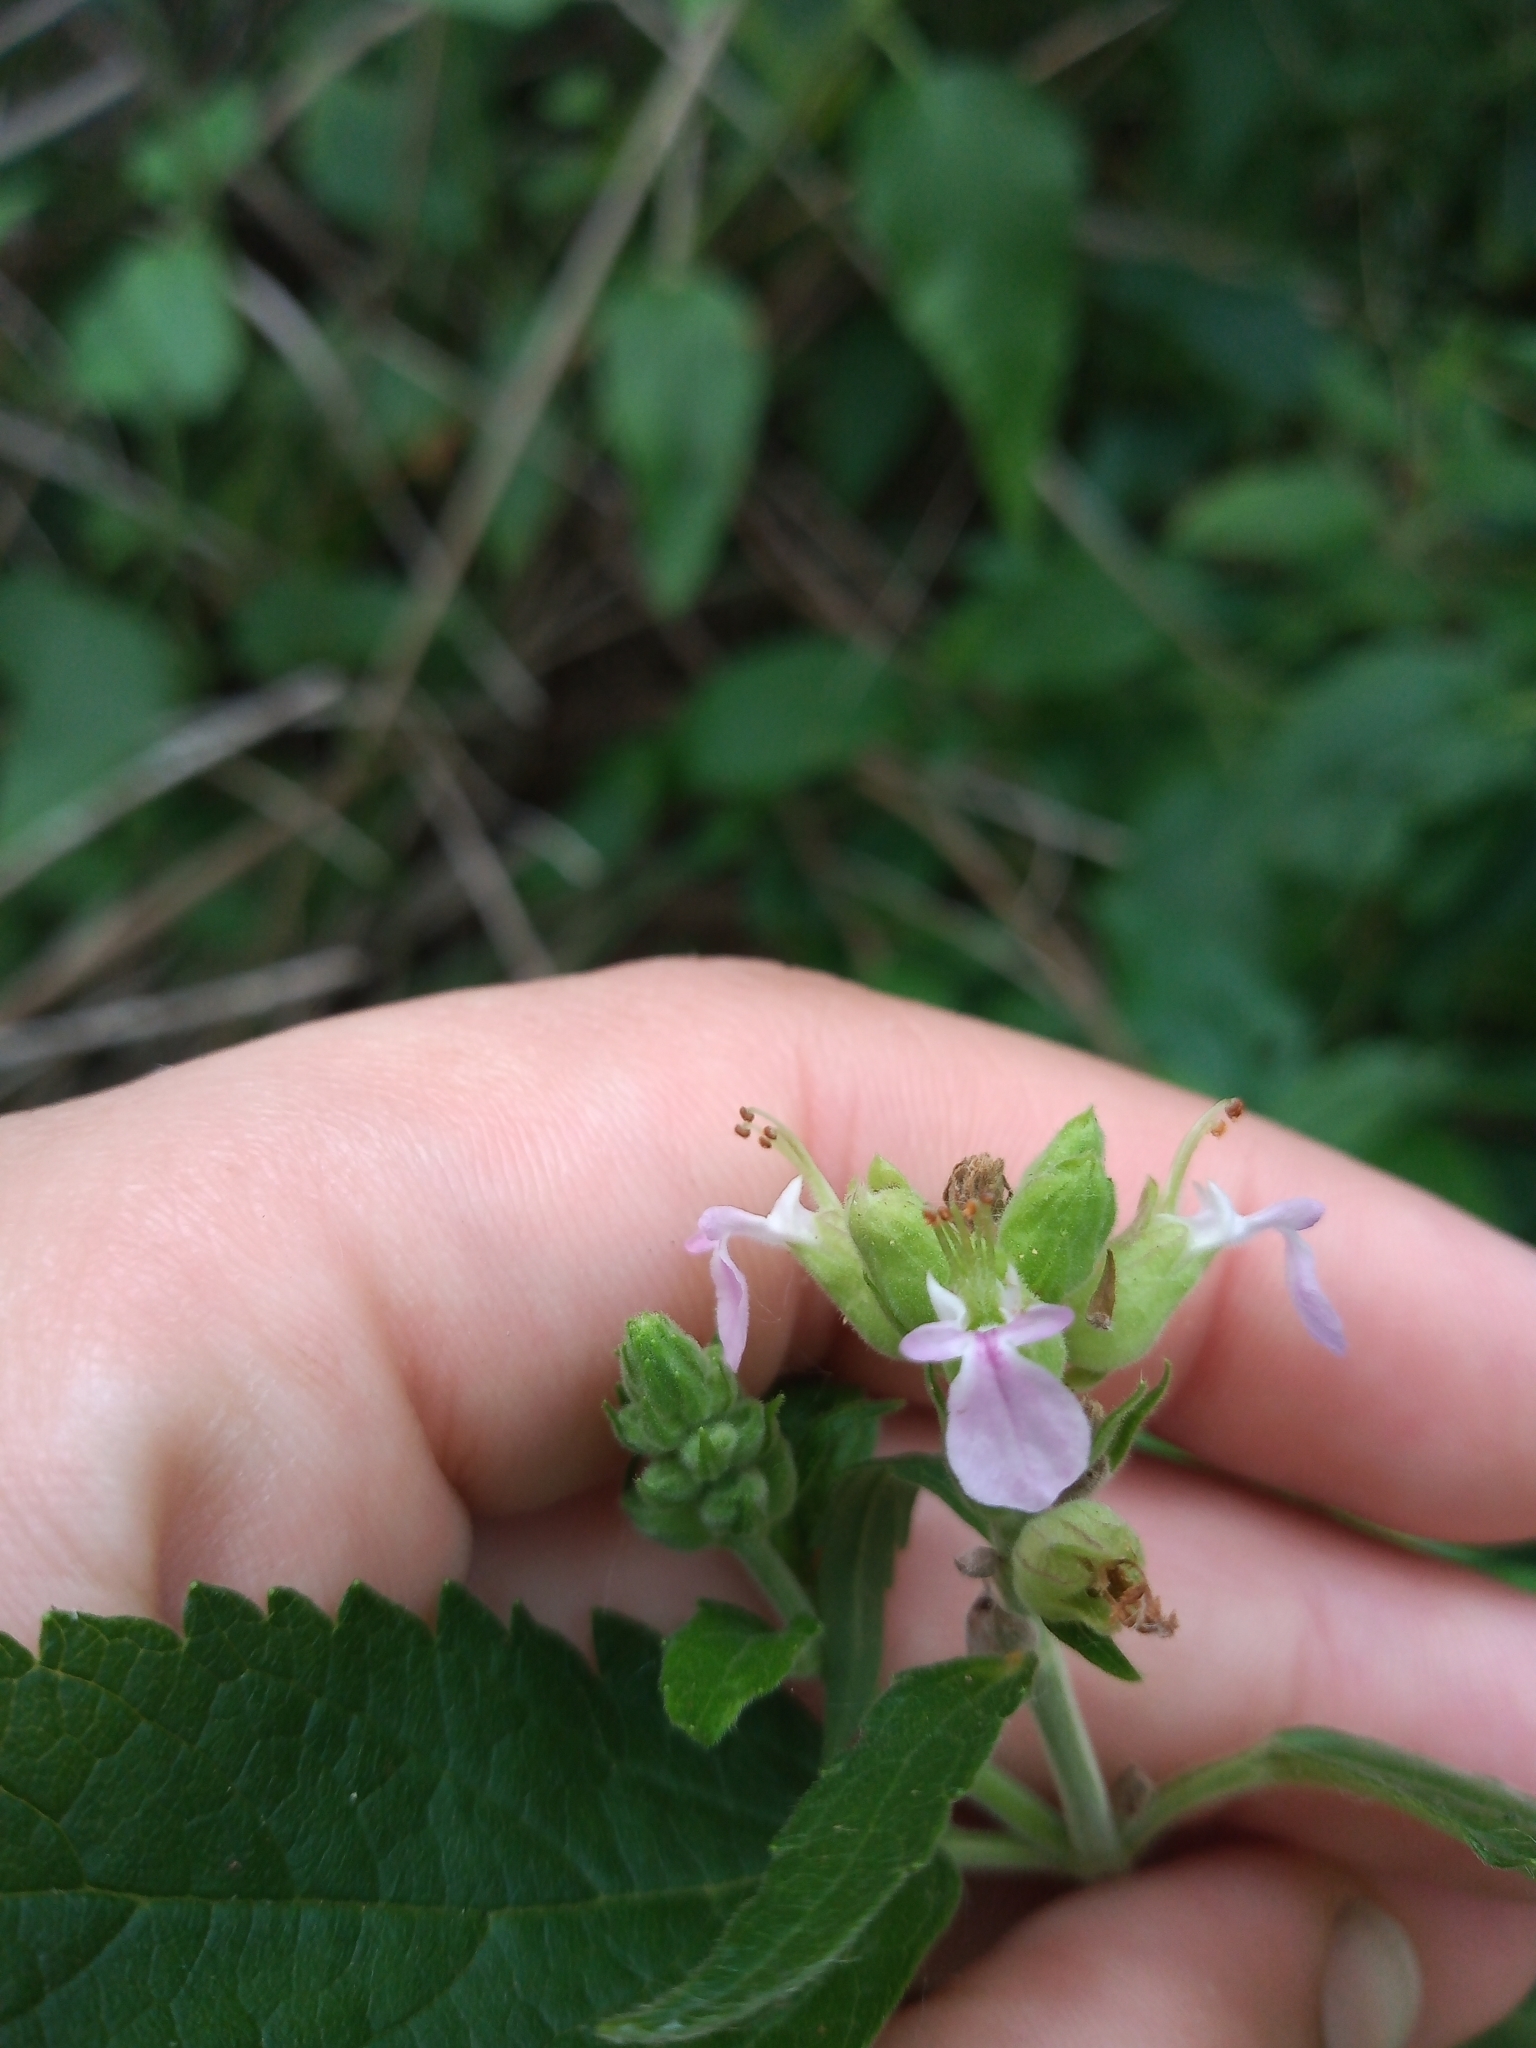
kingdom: Plantae
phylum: Tracheophyta
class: Magnoliopsida
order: Lamiales
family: Lamiaceae
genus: Teucrium
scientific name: Teucrium vesicarium
